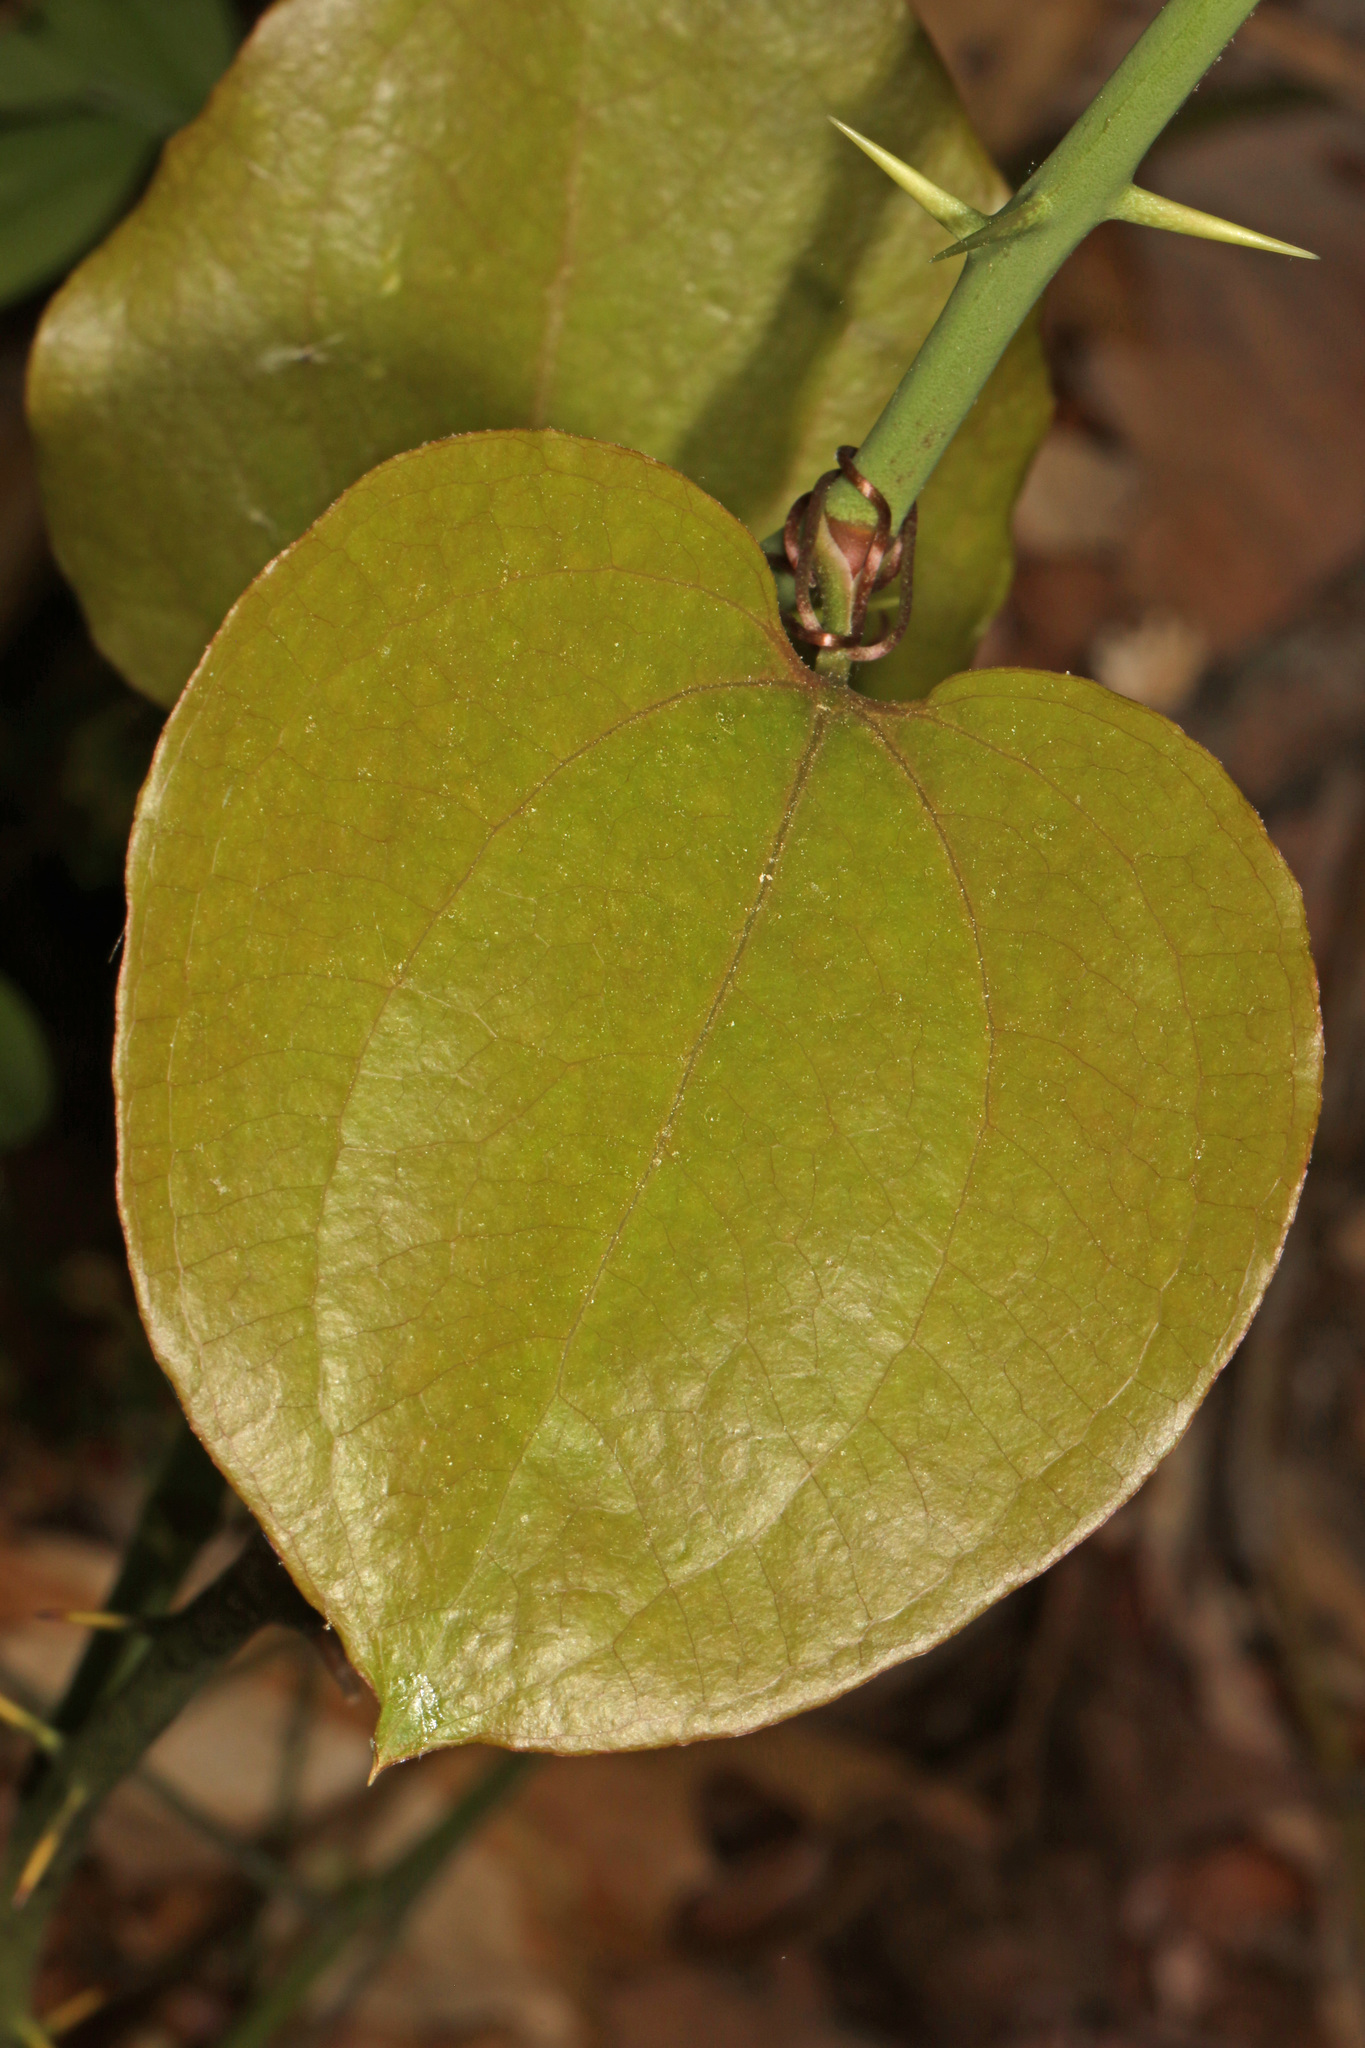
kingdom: Plantae
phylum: Tracheophyta
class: Liliopsida
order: Liliales
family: Smilacaceae
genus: Smilax
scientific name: Smilax rotundifolia
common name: Bullbriar
